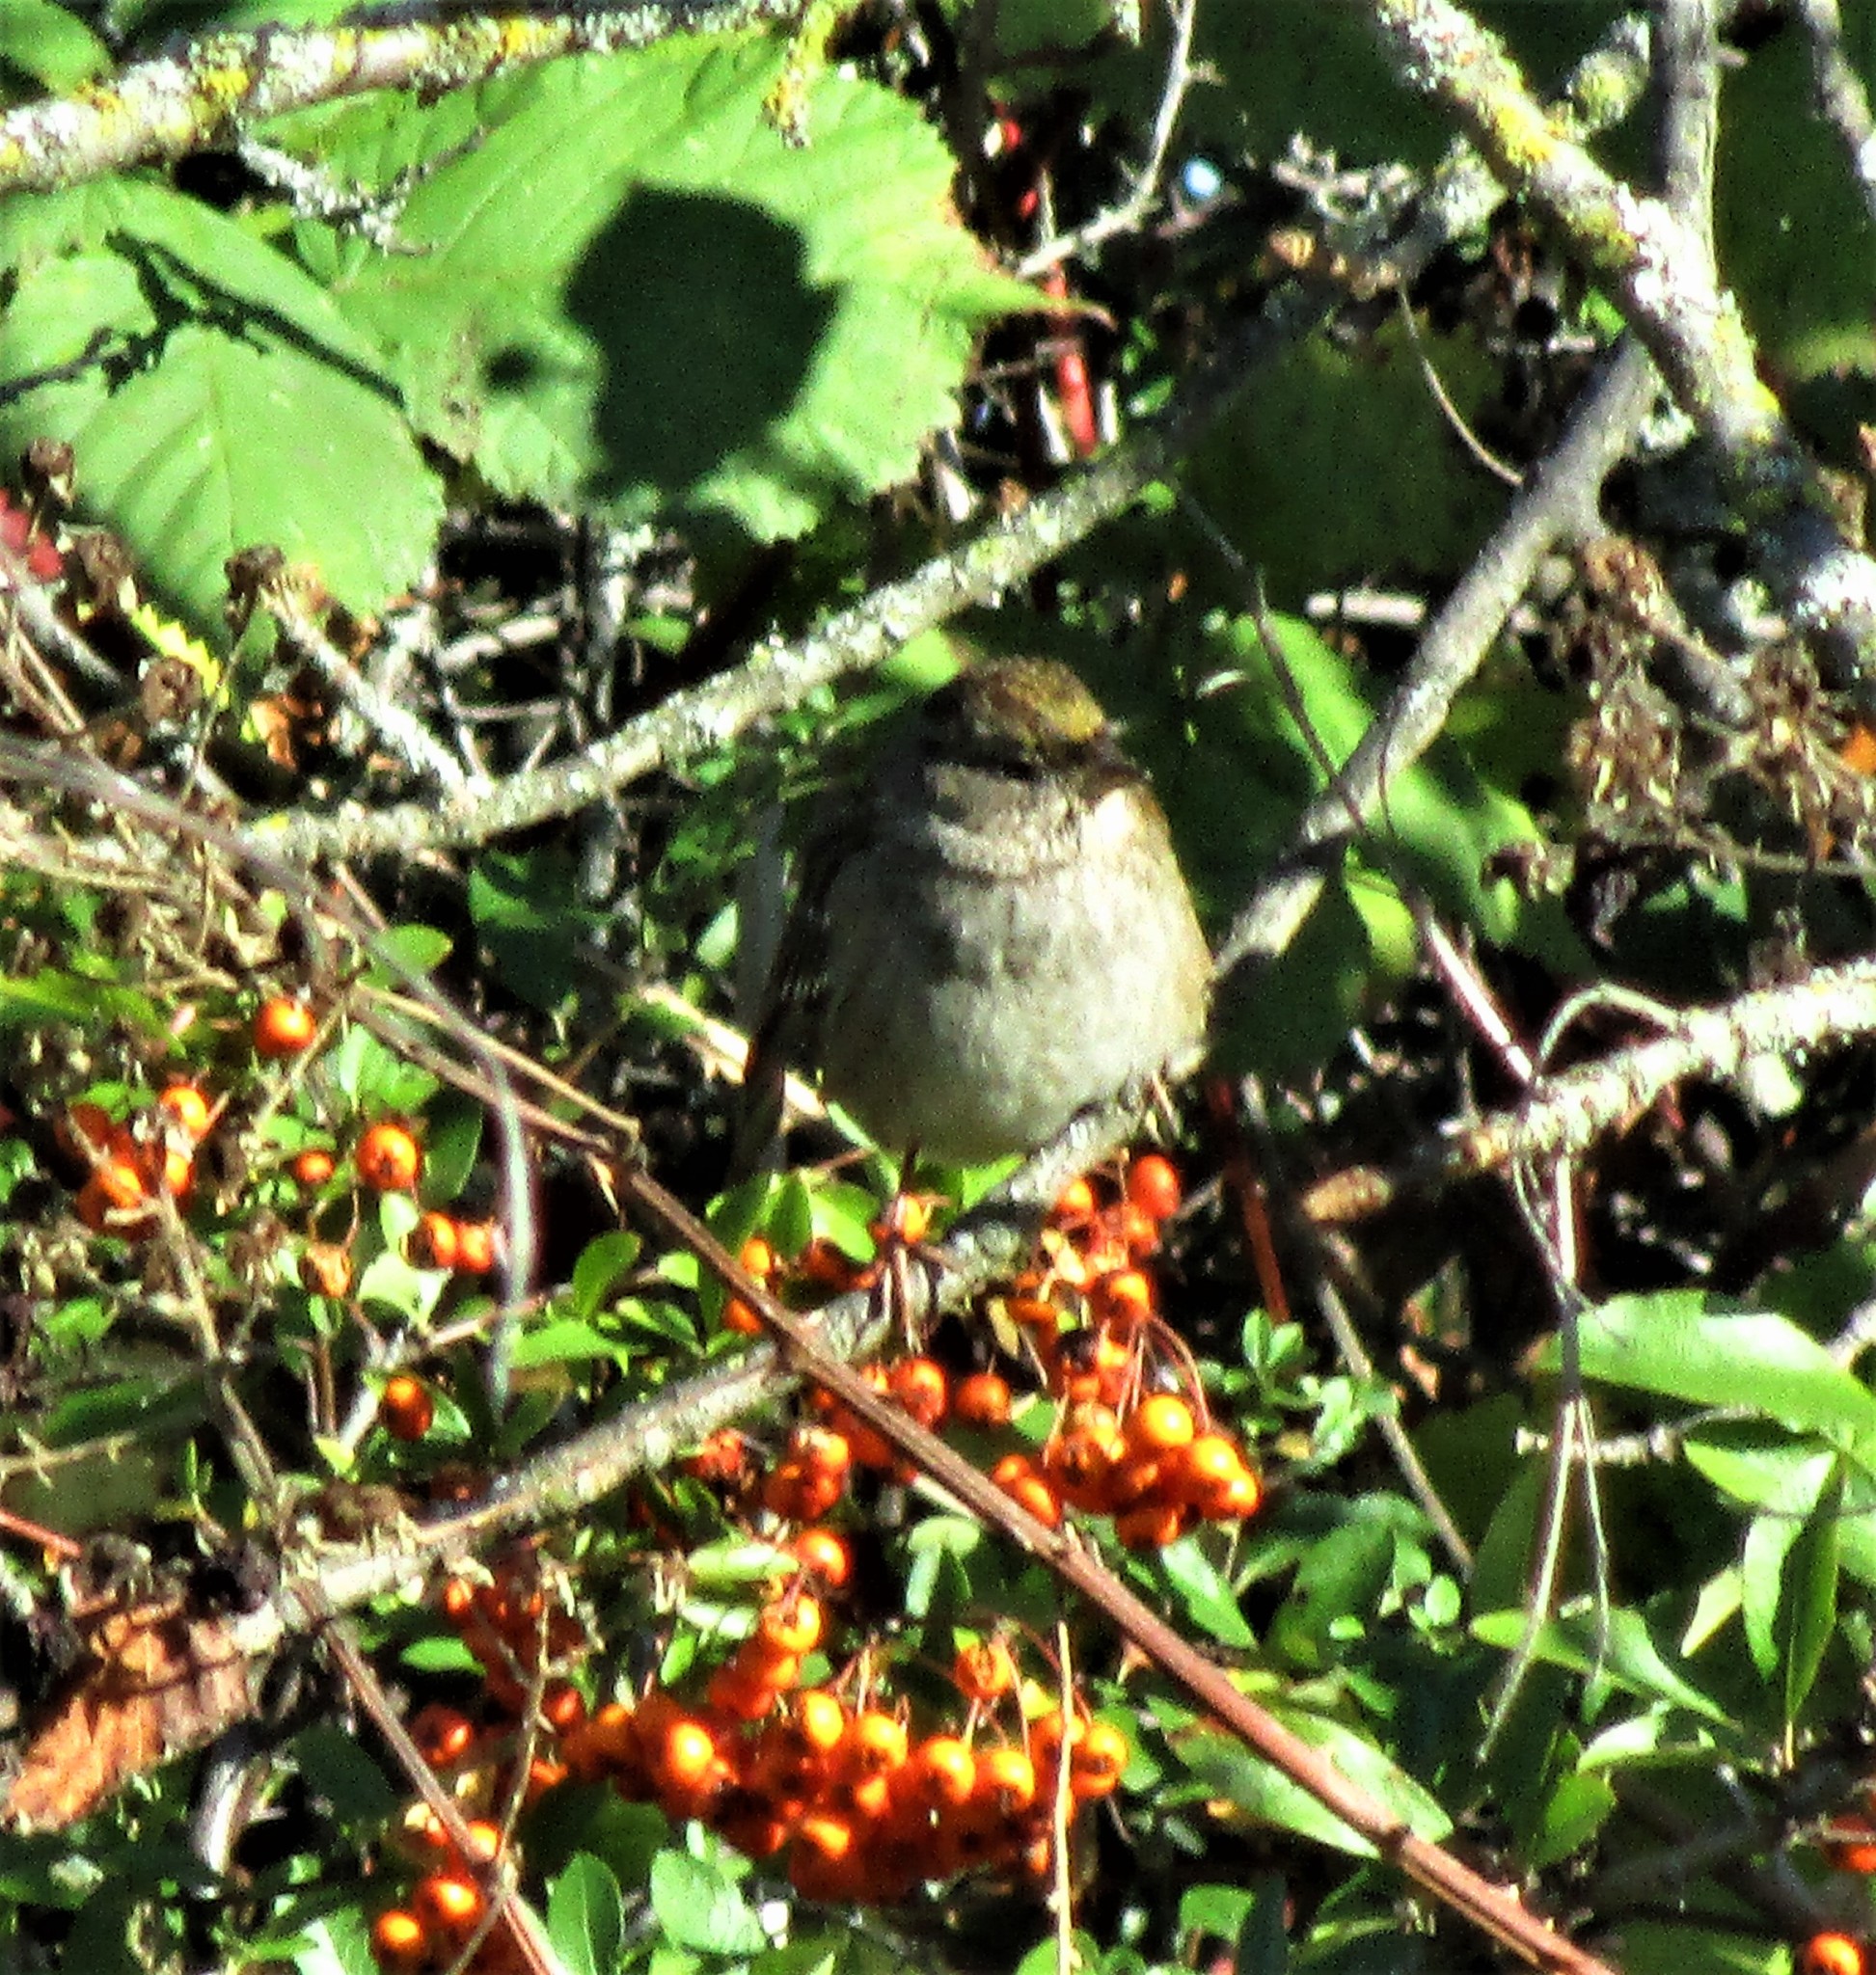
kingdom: Animalia
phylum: Chordata
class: Aves
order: Passeriformes
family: Passerellidae
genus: Zonotrichia
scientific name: Zonotrichia atricapilla
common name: Golden-crowned sparrow
